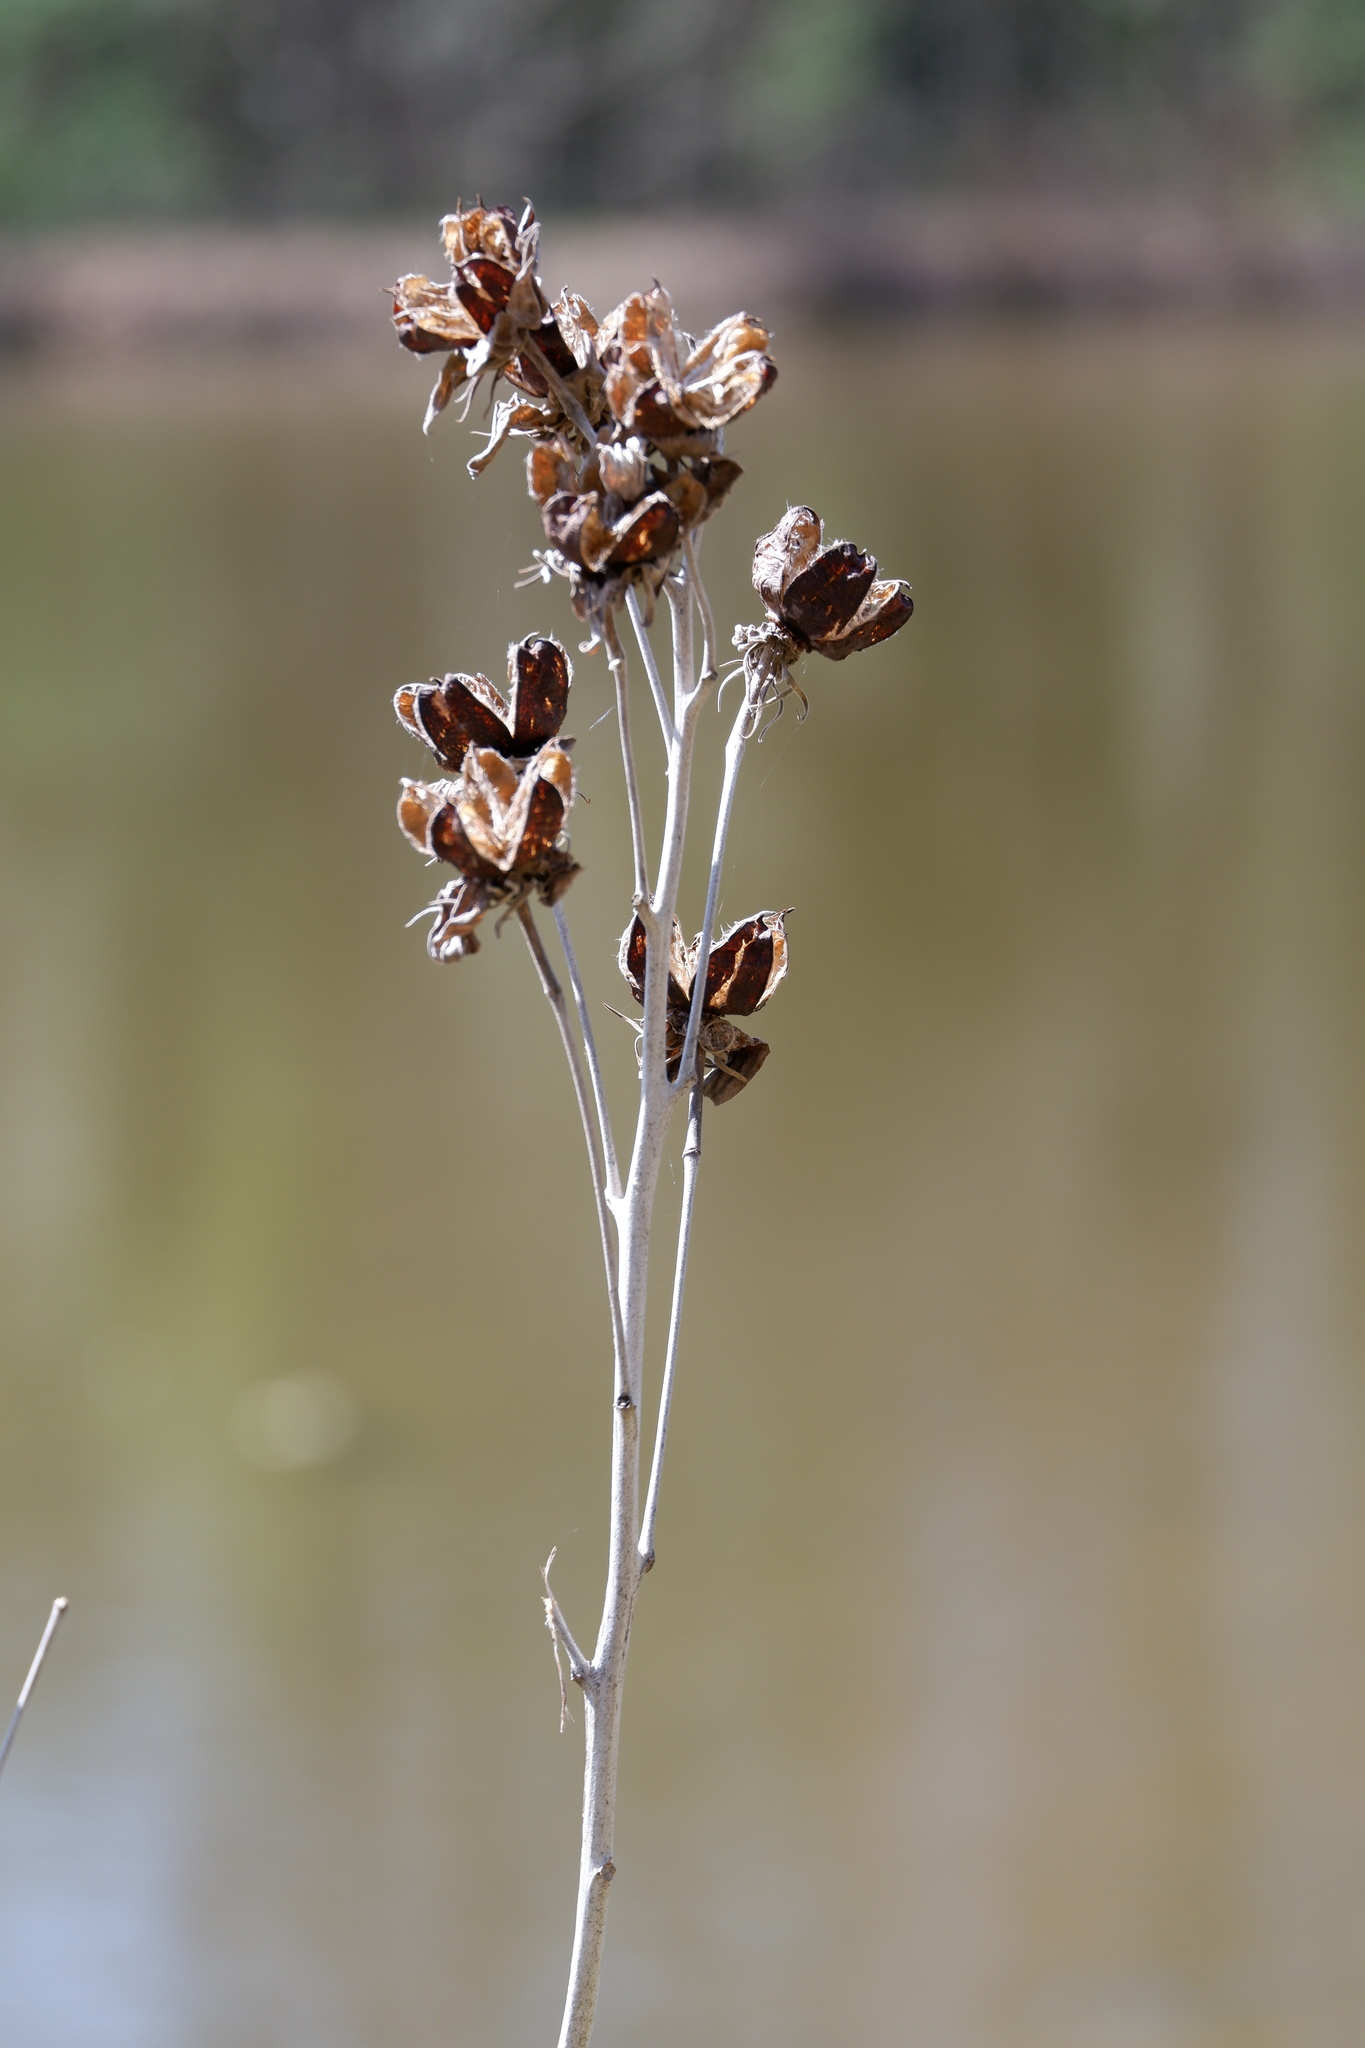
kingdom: Plantae
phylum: Tracheophyta
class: Magnoliopsida
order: Malvales
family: Malvaceae
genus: Hibiscus
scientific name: Hibiscus moscheutos
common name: Common rose-mallow
